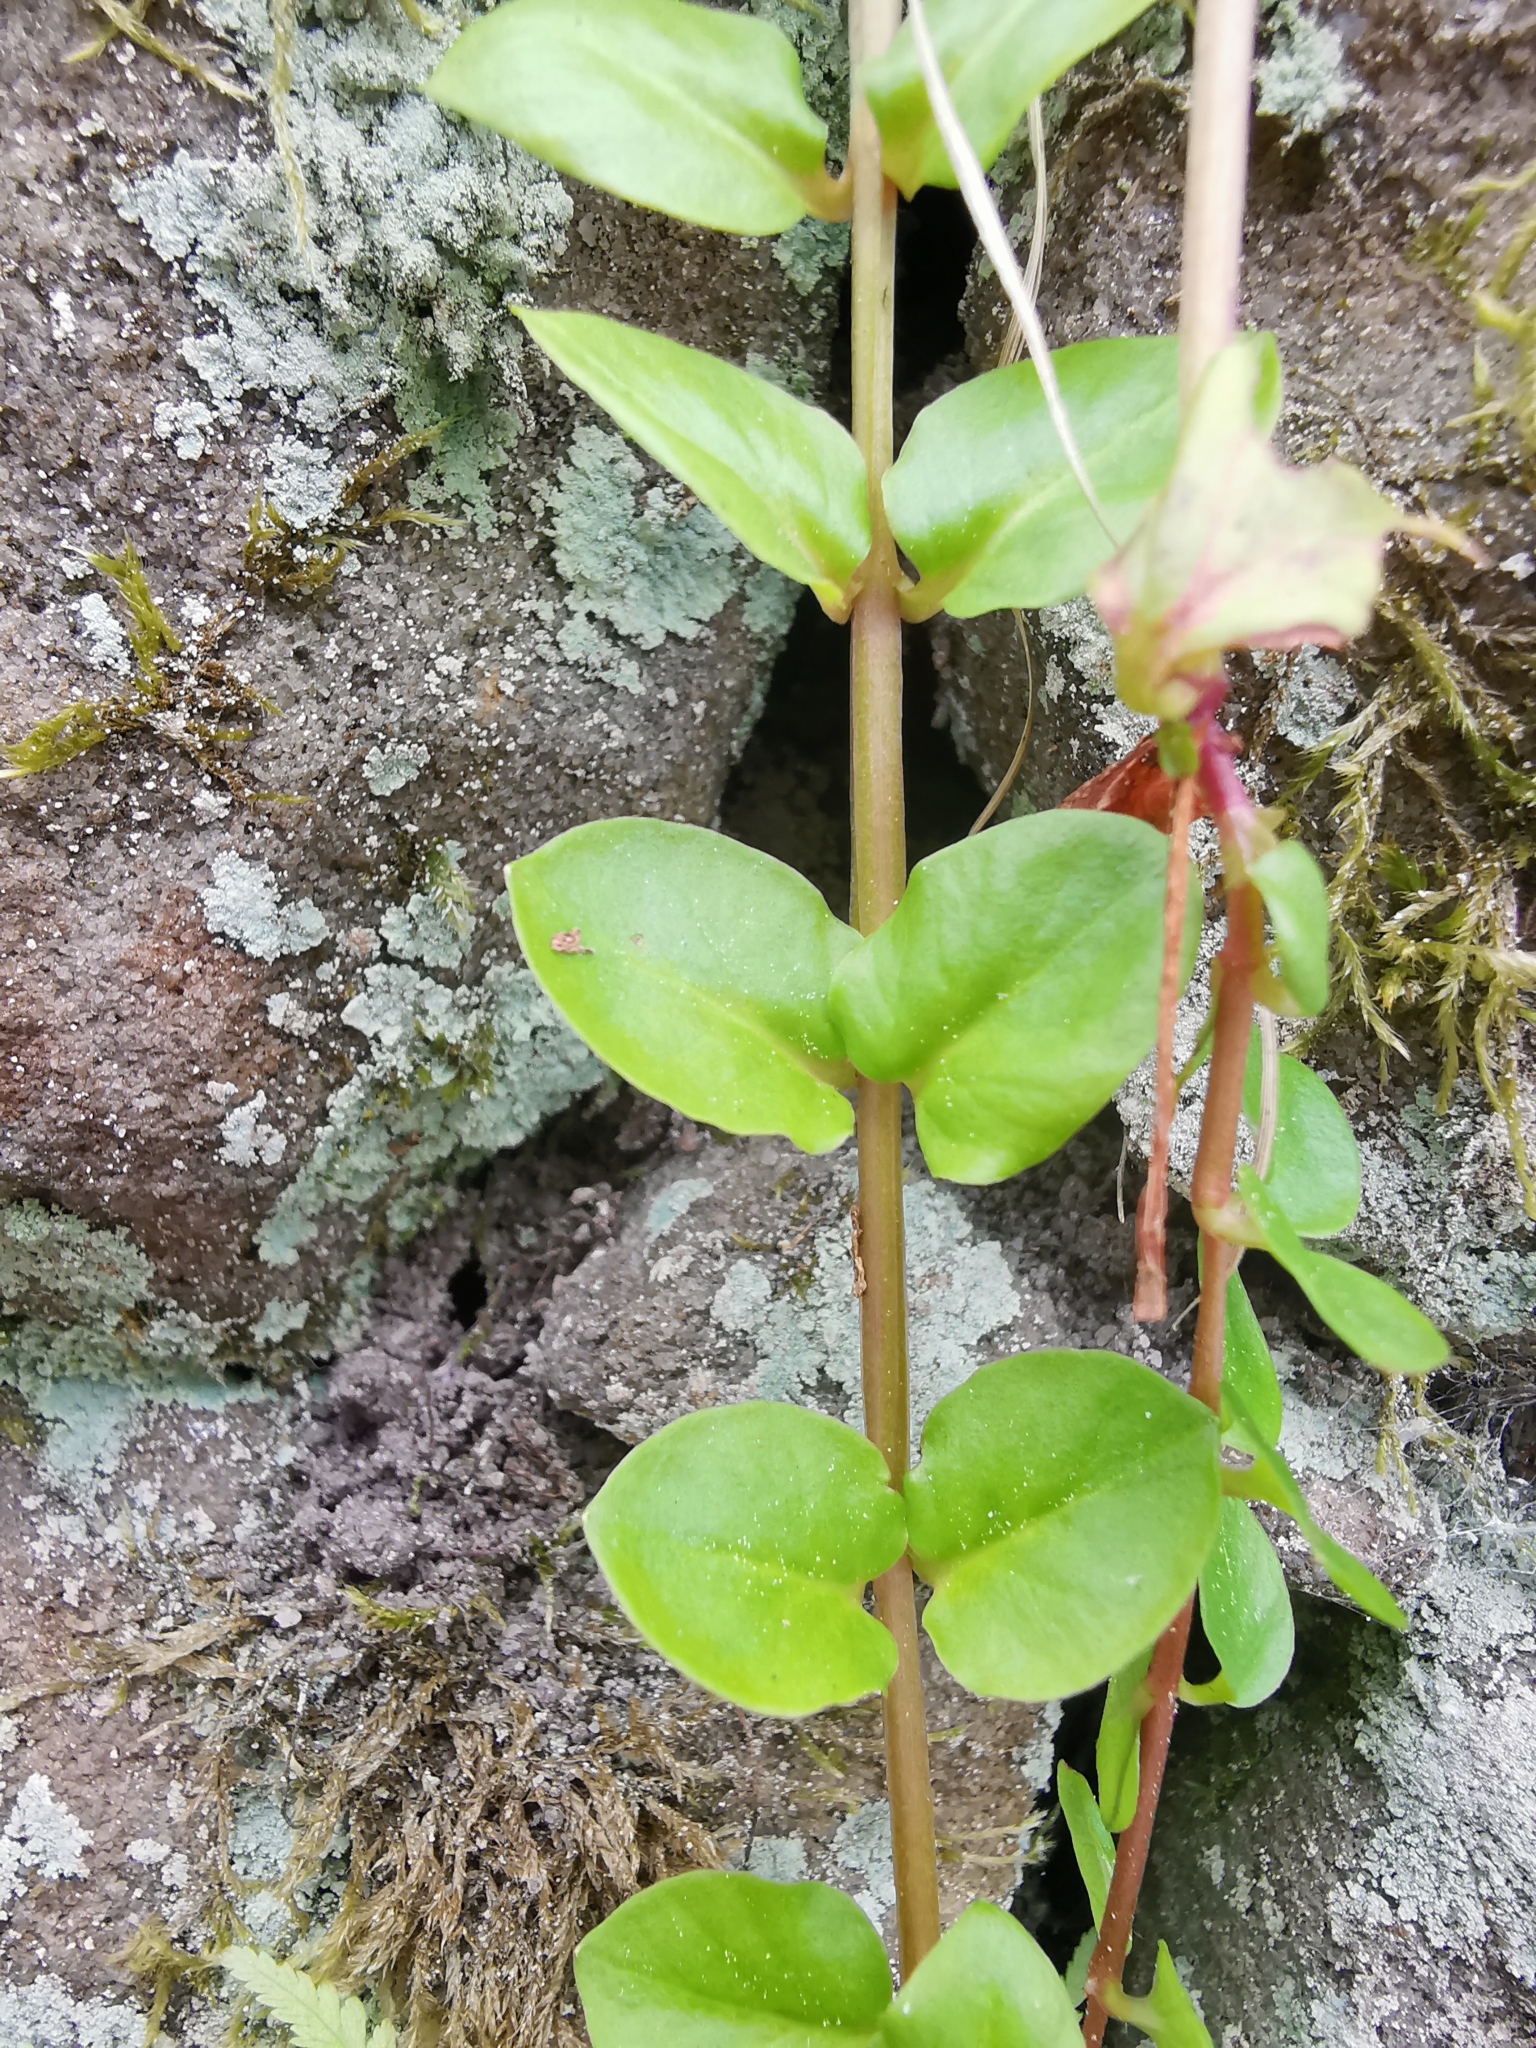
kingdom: Plantae
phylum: Tracheophyta
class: Magnoliopsida
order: Ericales
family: Primulaceae
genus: Lysimachia
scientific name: Lysimachia nummularia
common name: Moneywort
